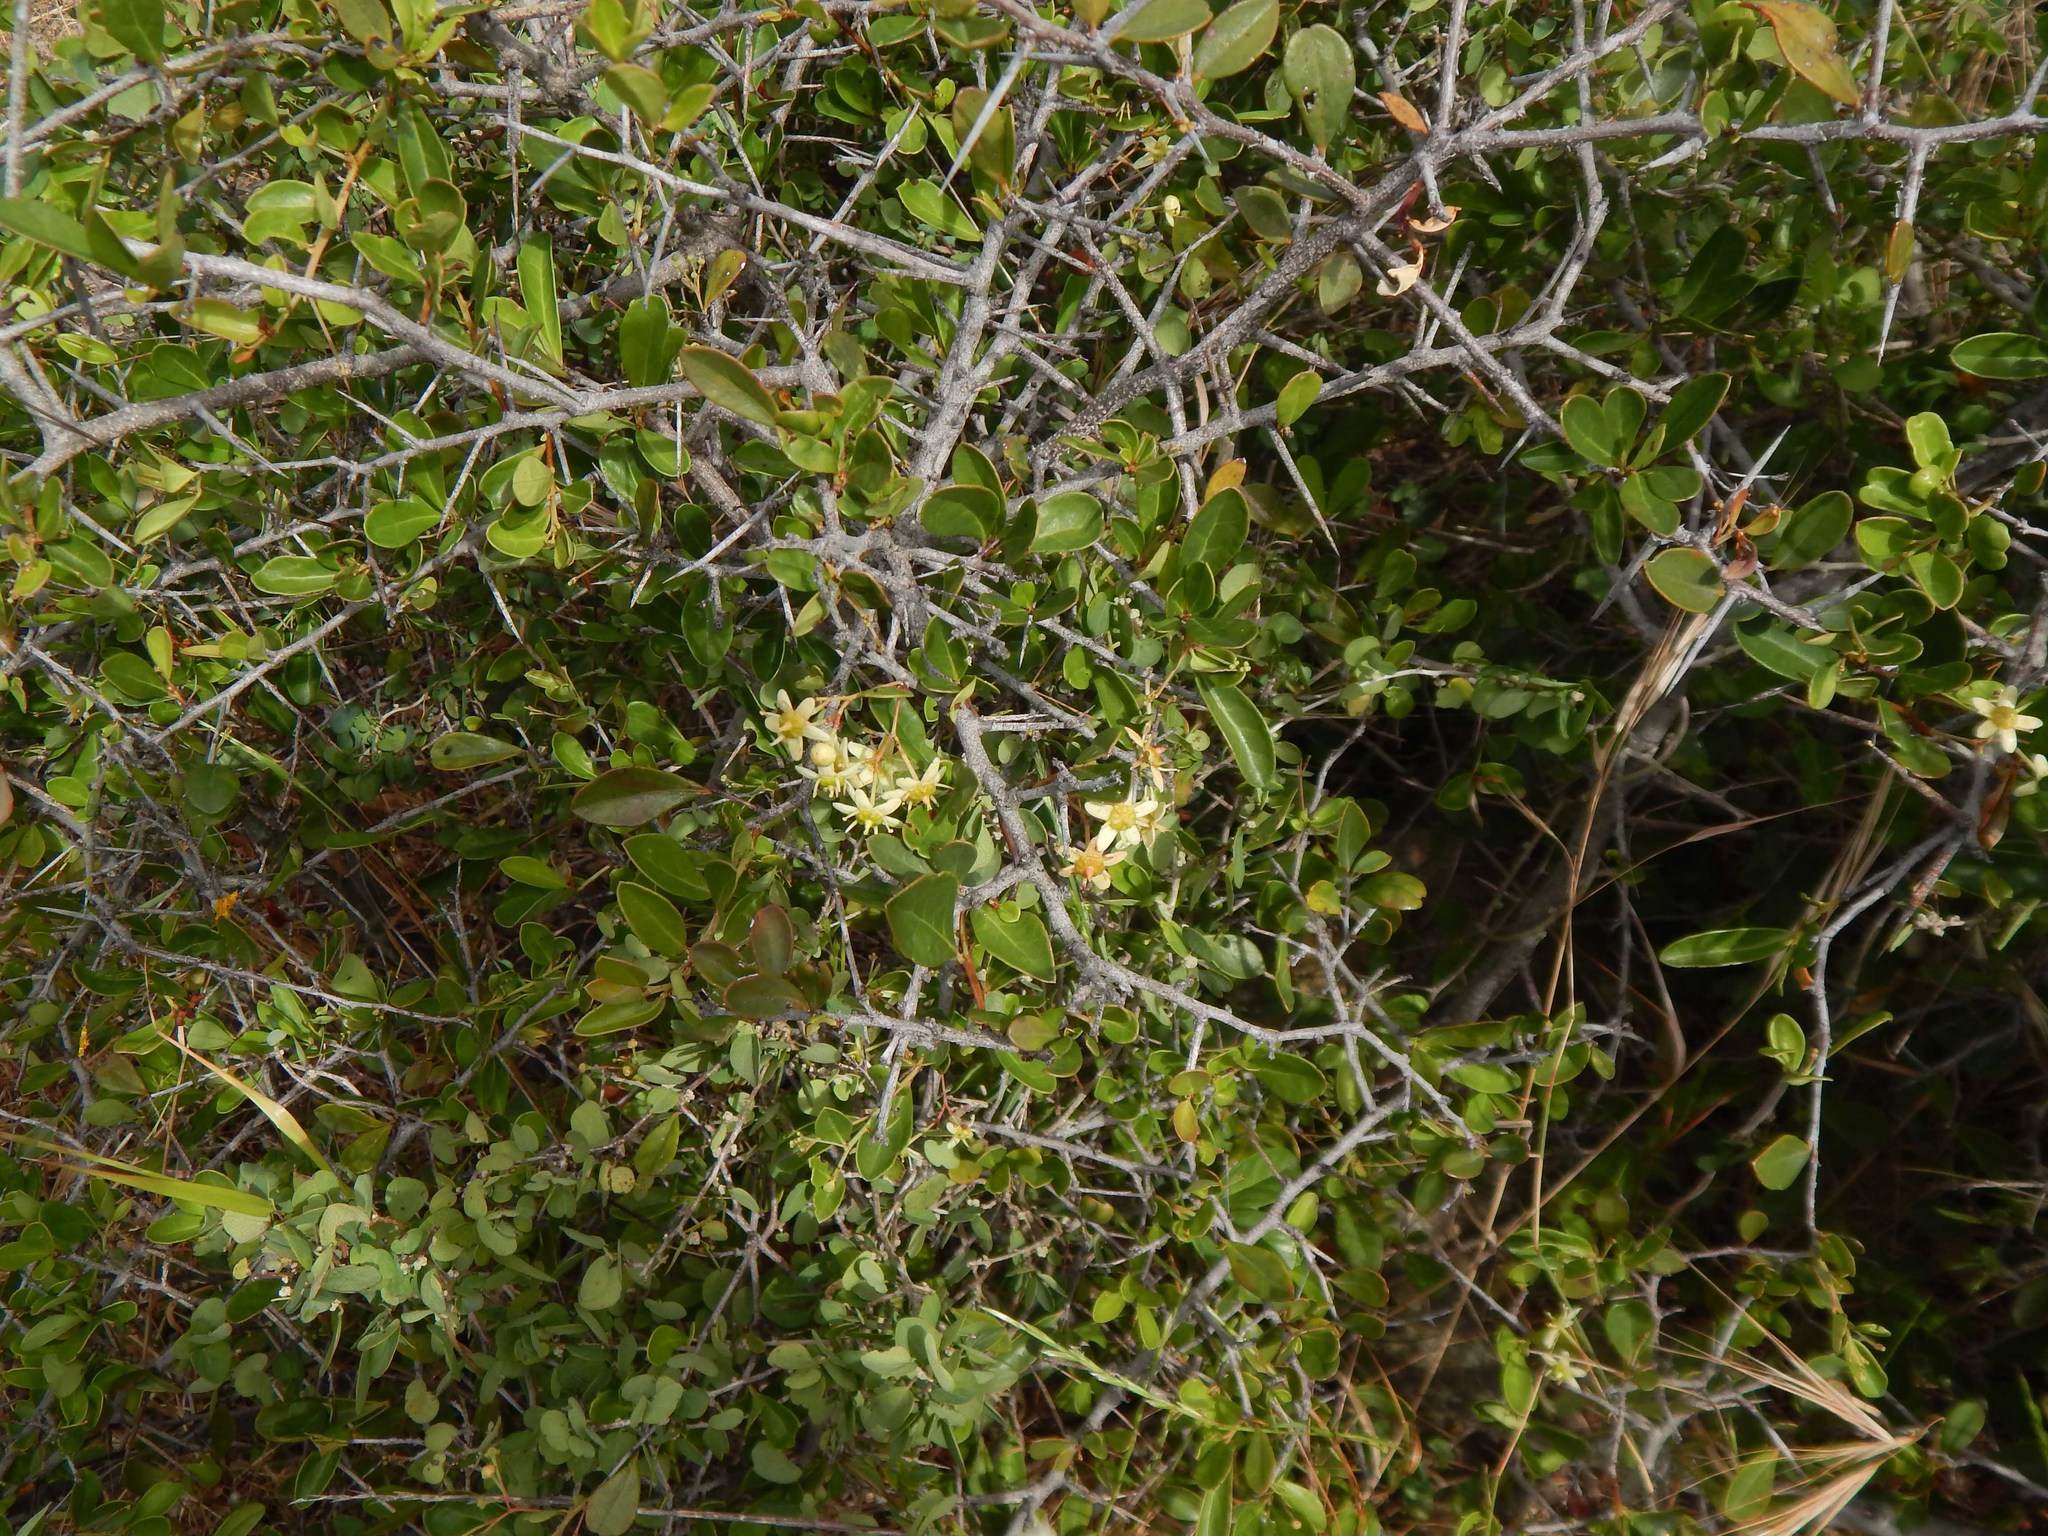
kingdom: Plantae
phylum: Tracheophyta
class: Magnoliopsida
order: Celastrales
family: Celastraceae
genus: Putterlickia
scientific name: Putterlickia pyracantha
